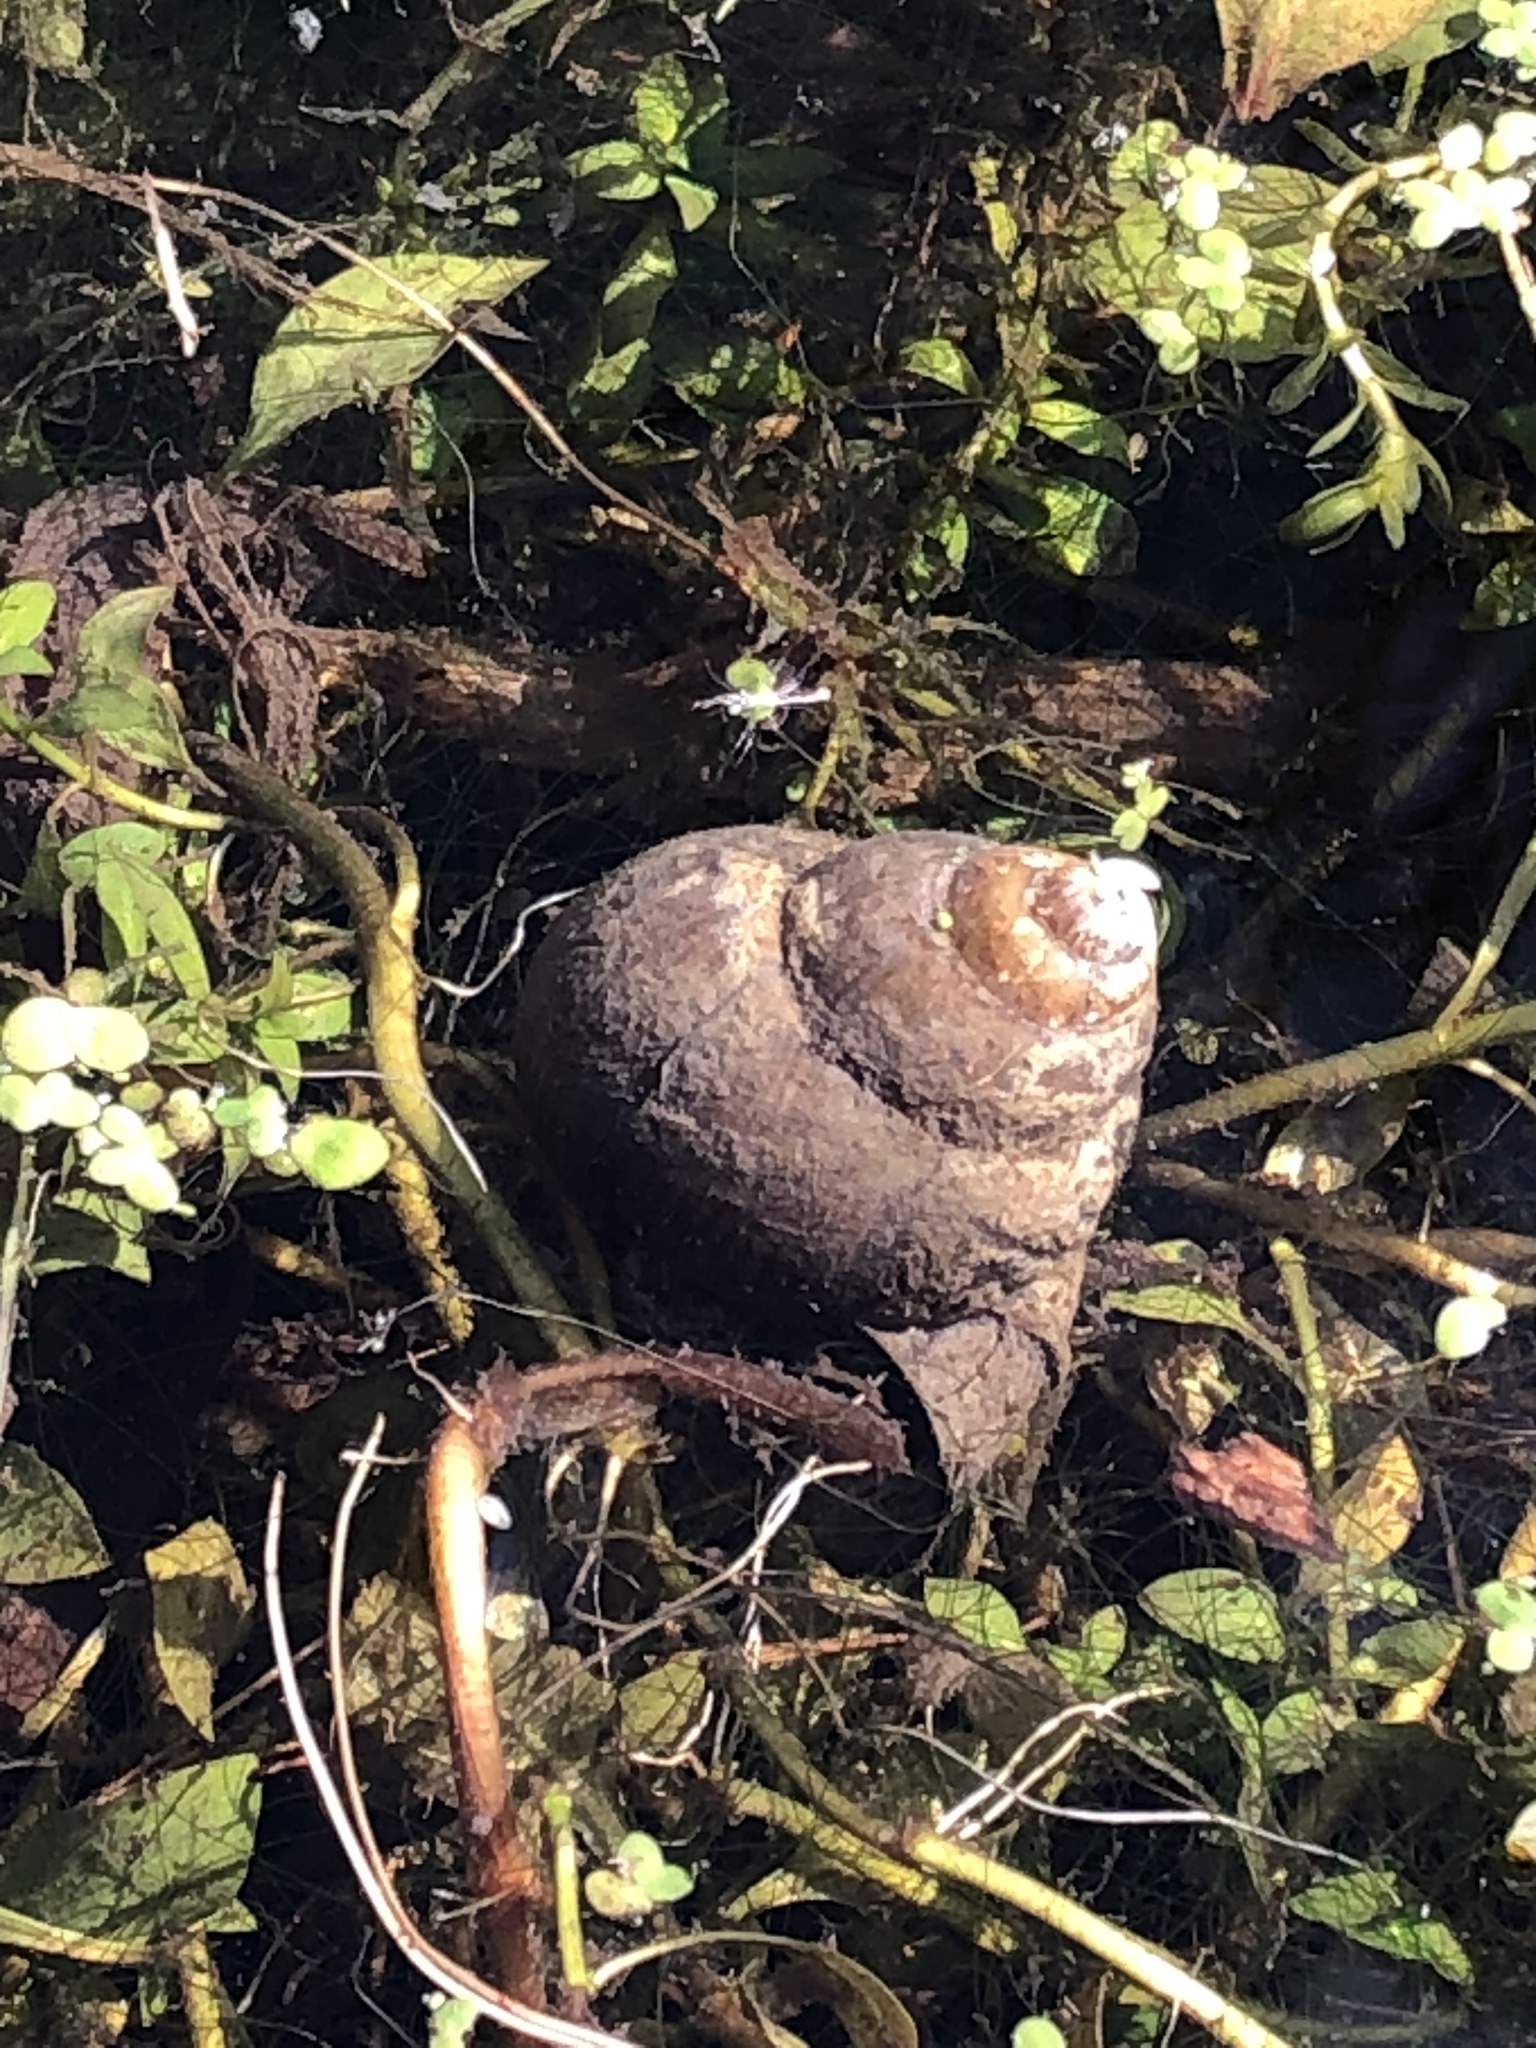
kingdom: Animalia
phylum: Mollusca
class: Gastropoda
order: Architaenioglossa
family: Viviparidae
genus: Cipangopaludina
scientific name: Cipangopaludina chinensis
